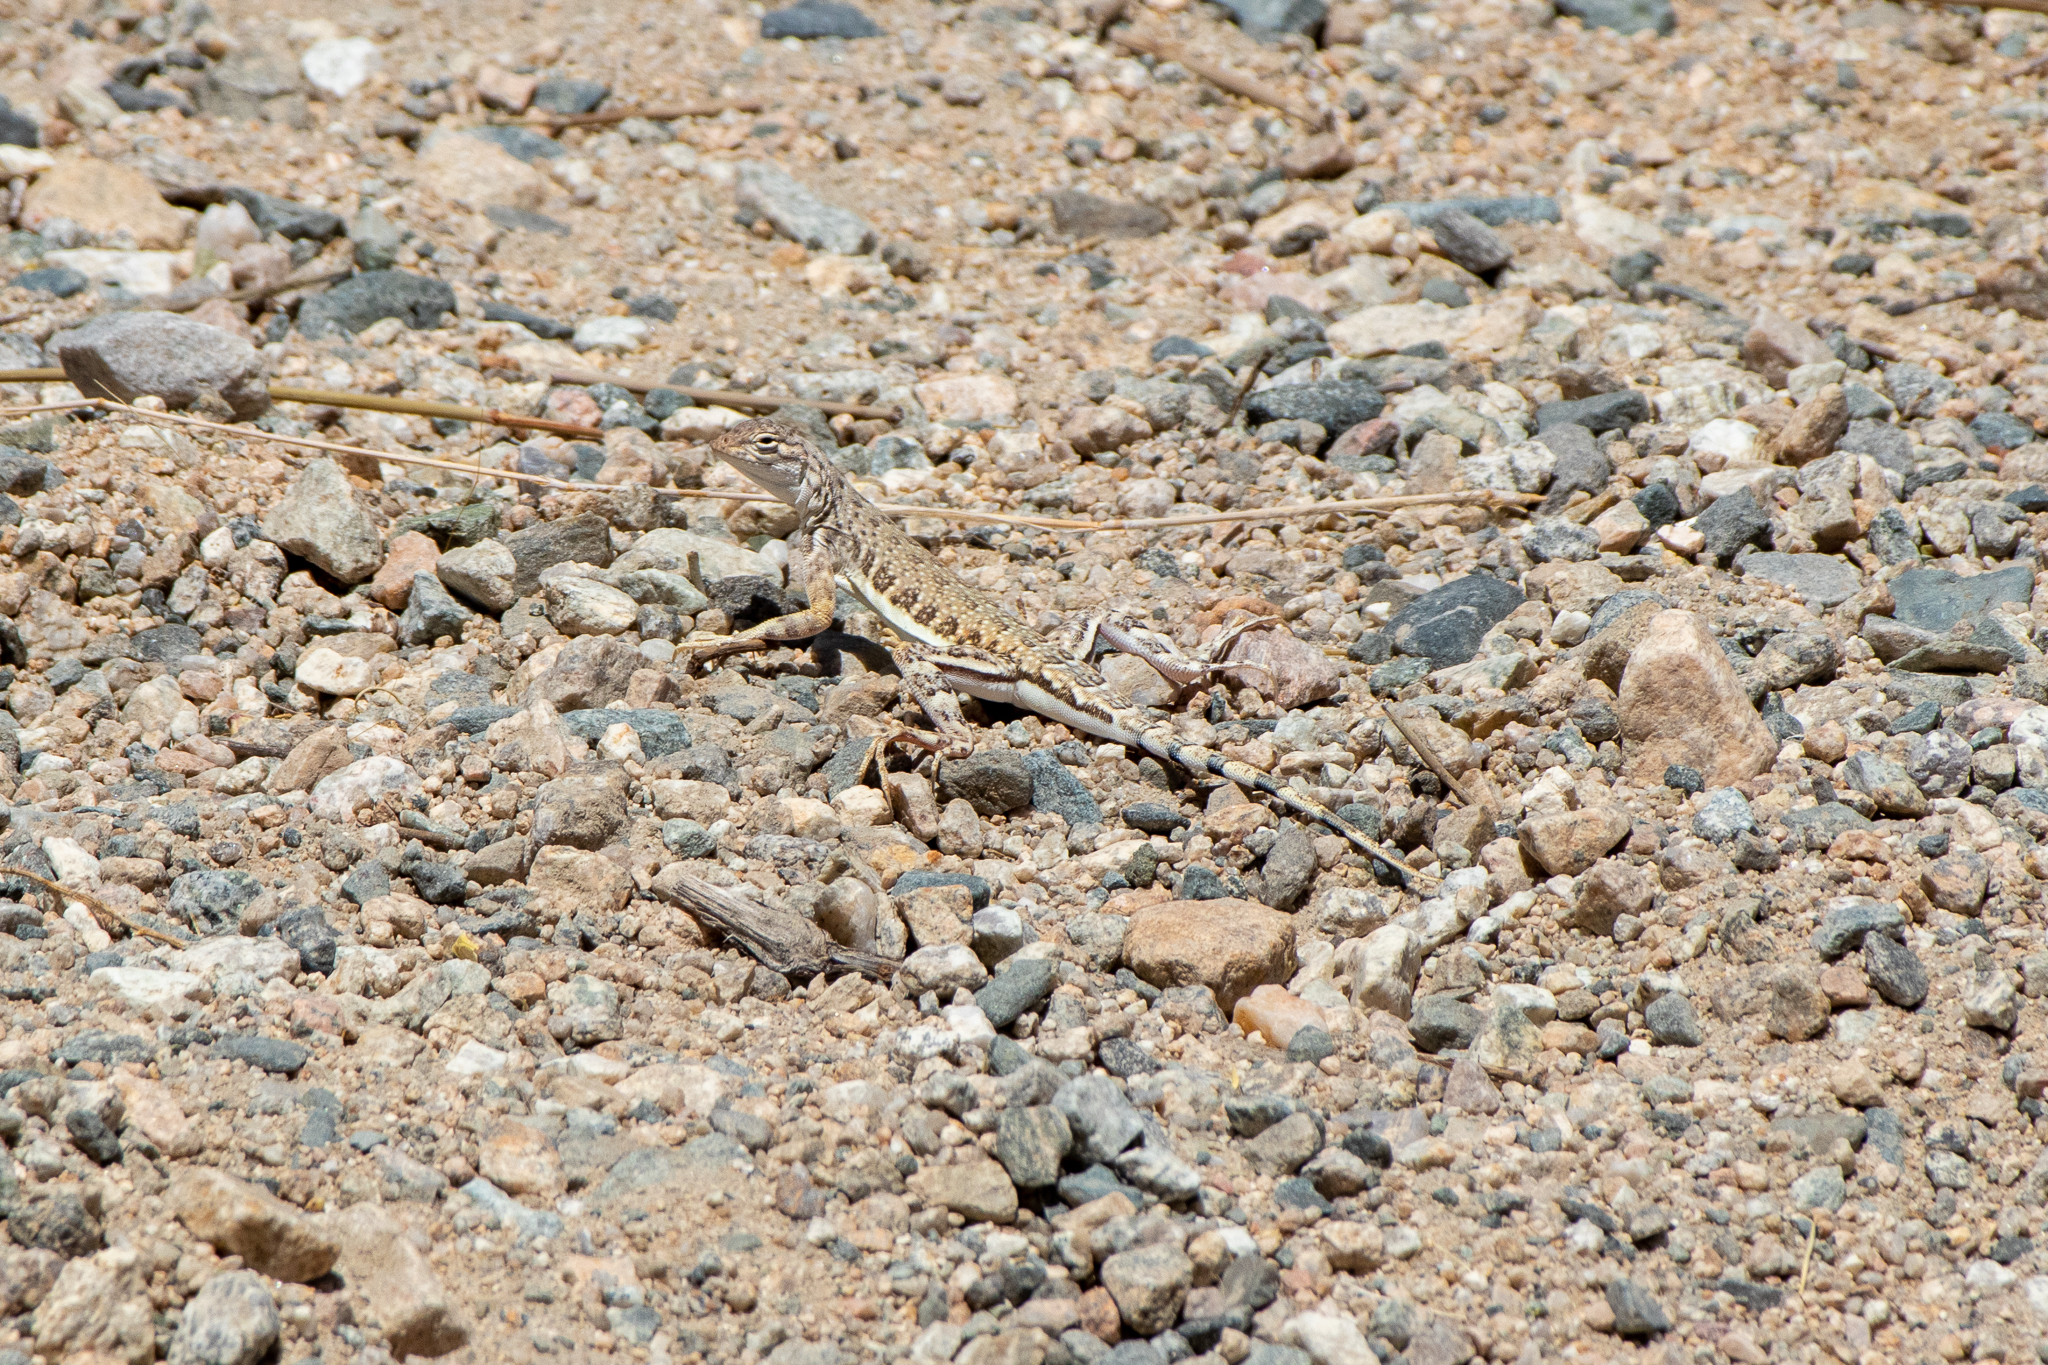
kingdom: Animalia
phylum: Chordata
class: Squamata
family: Phrynosomatidae
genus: Callisaurus
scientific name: Callisaurus draconoides
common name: Zebra-tailed lizard
